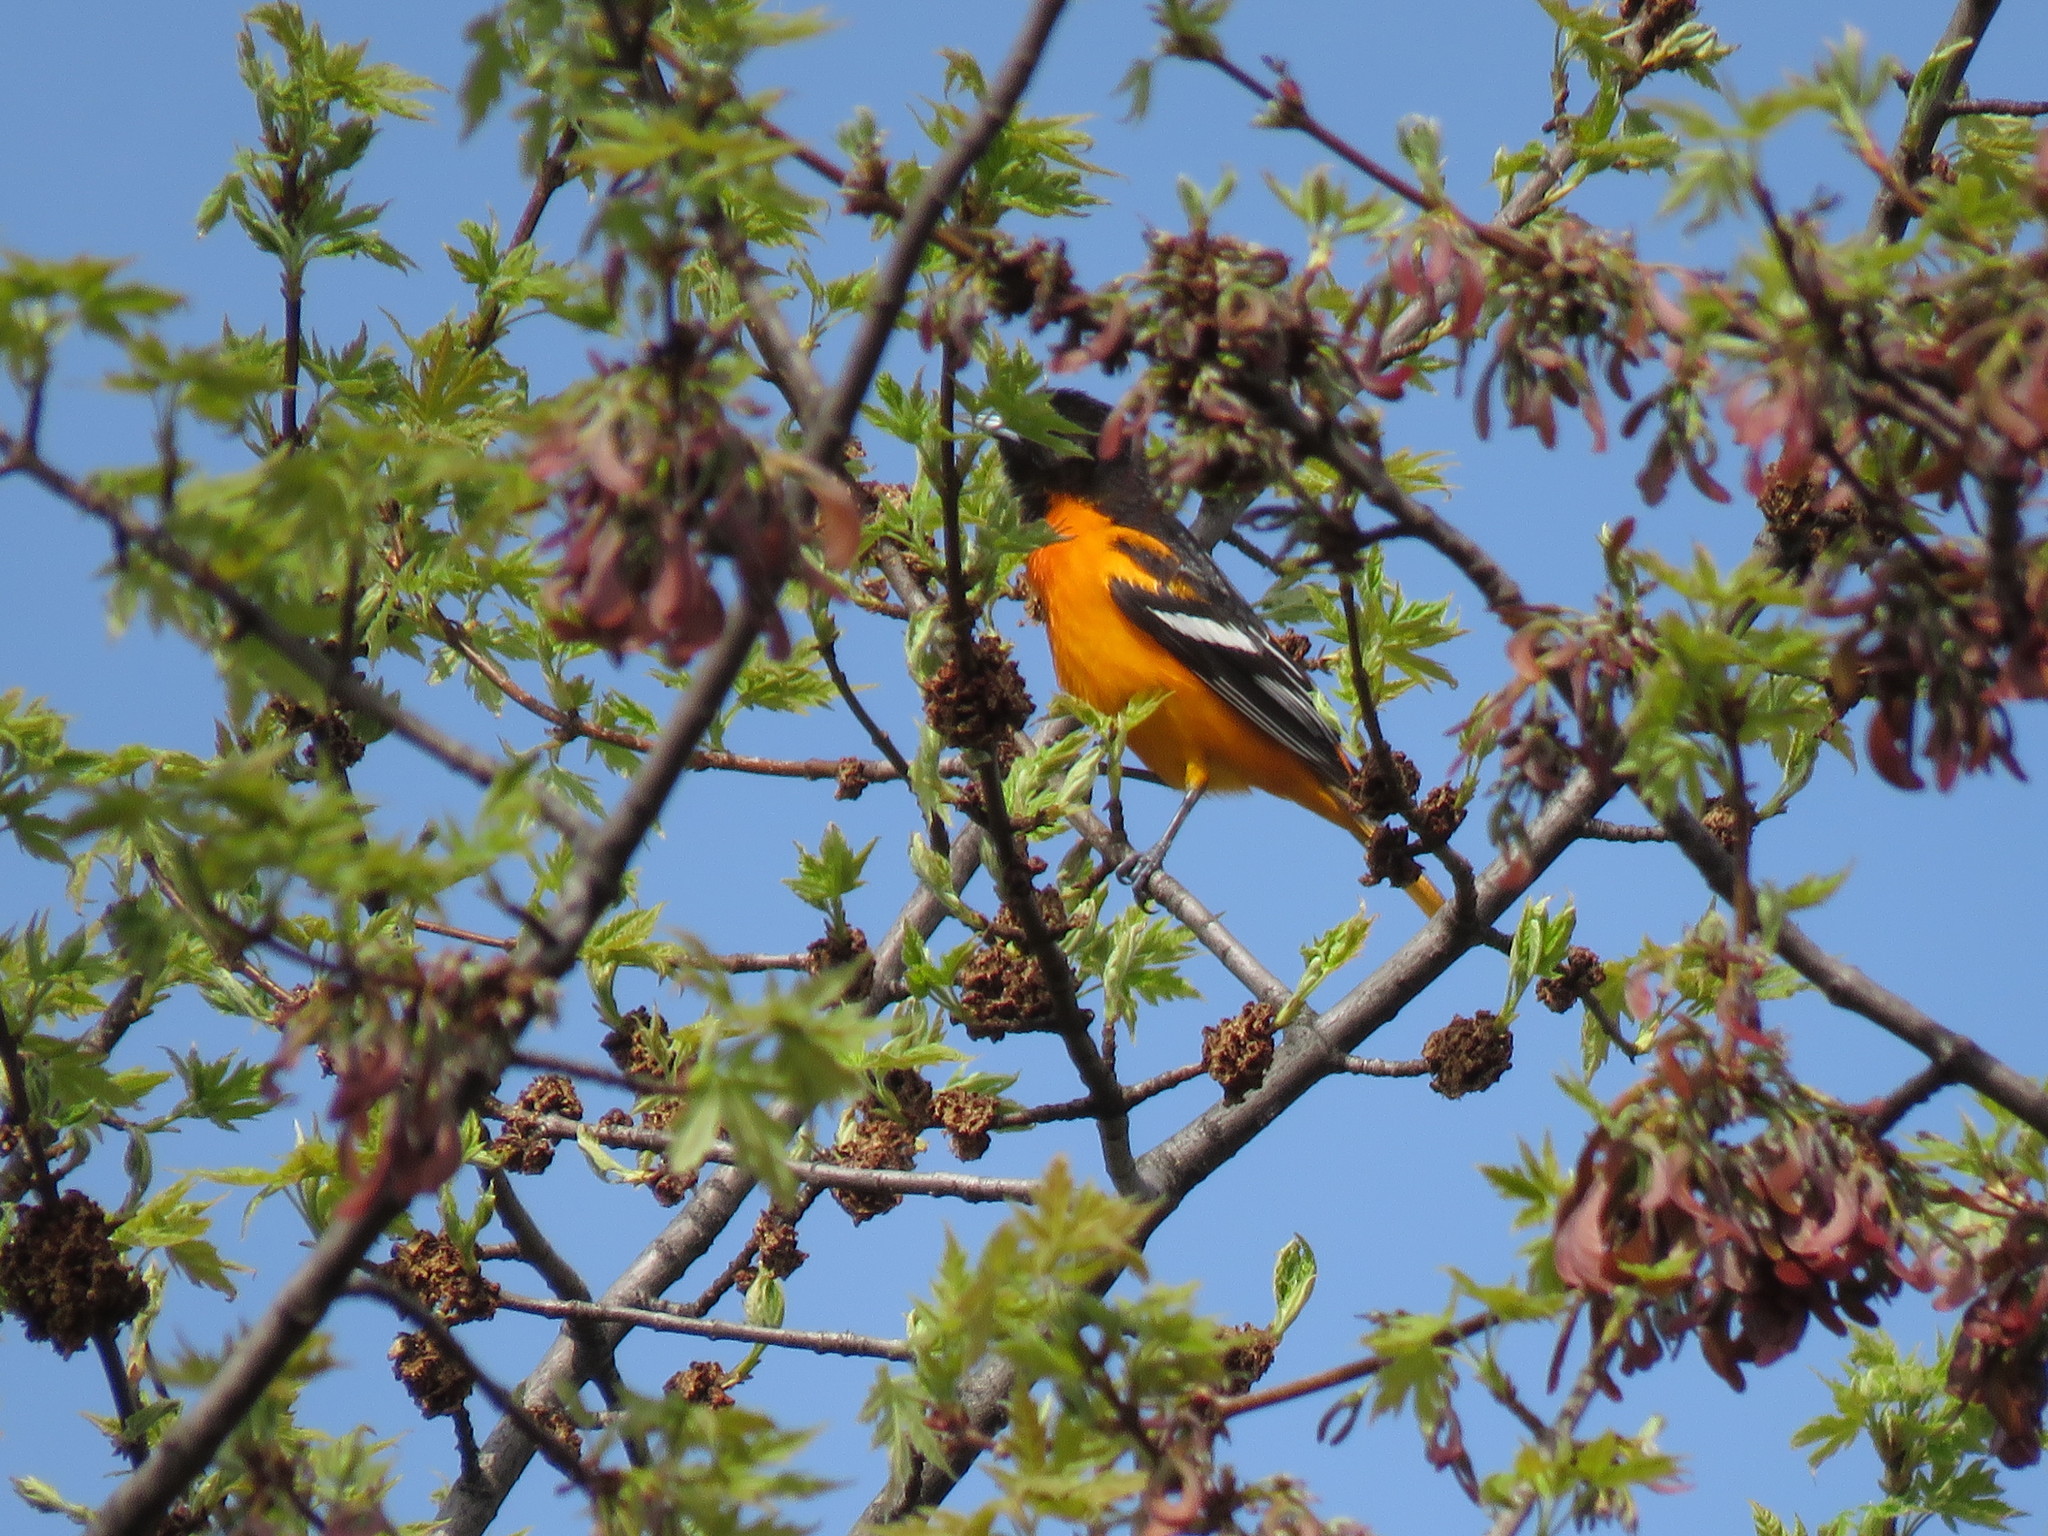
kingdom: Animalia
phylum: Chordata
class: Aves
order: Passeriformes
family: Icteridae
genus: Icterus
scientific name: Icterus galbula
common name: Baltimore oriole
